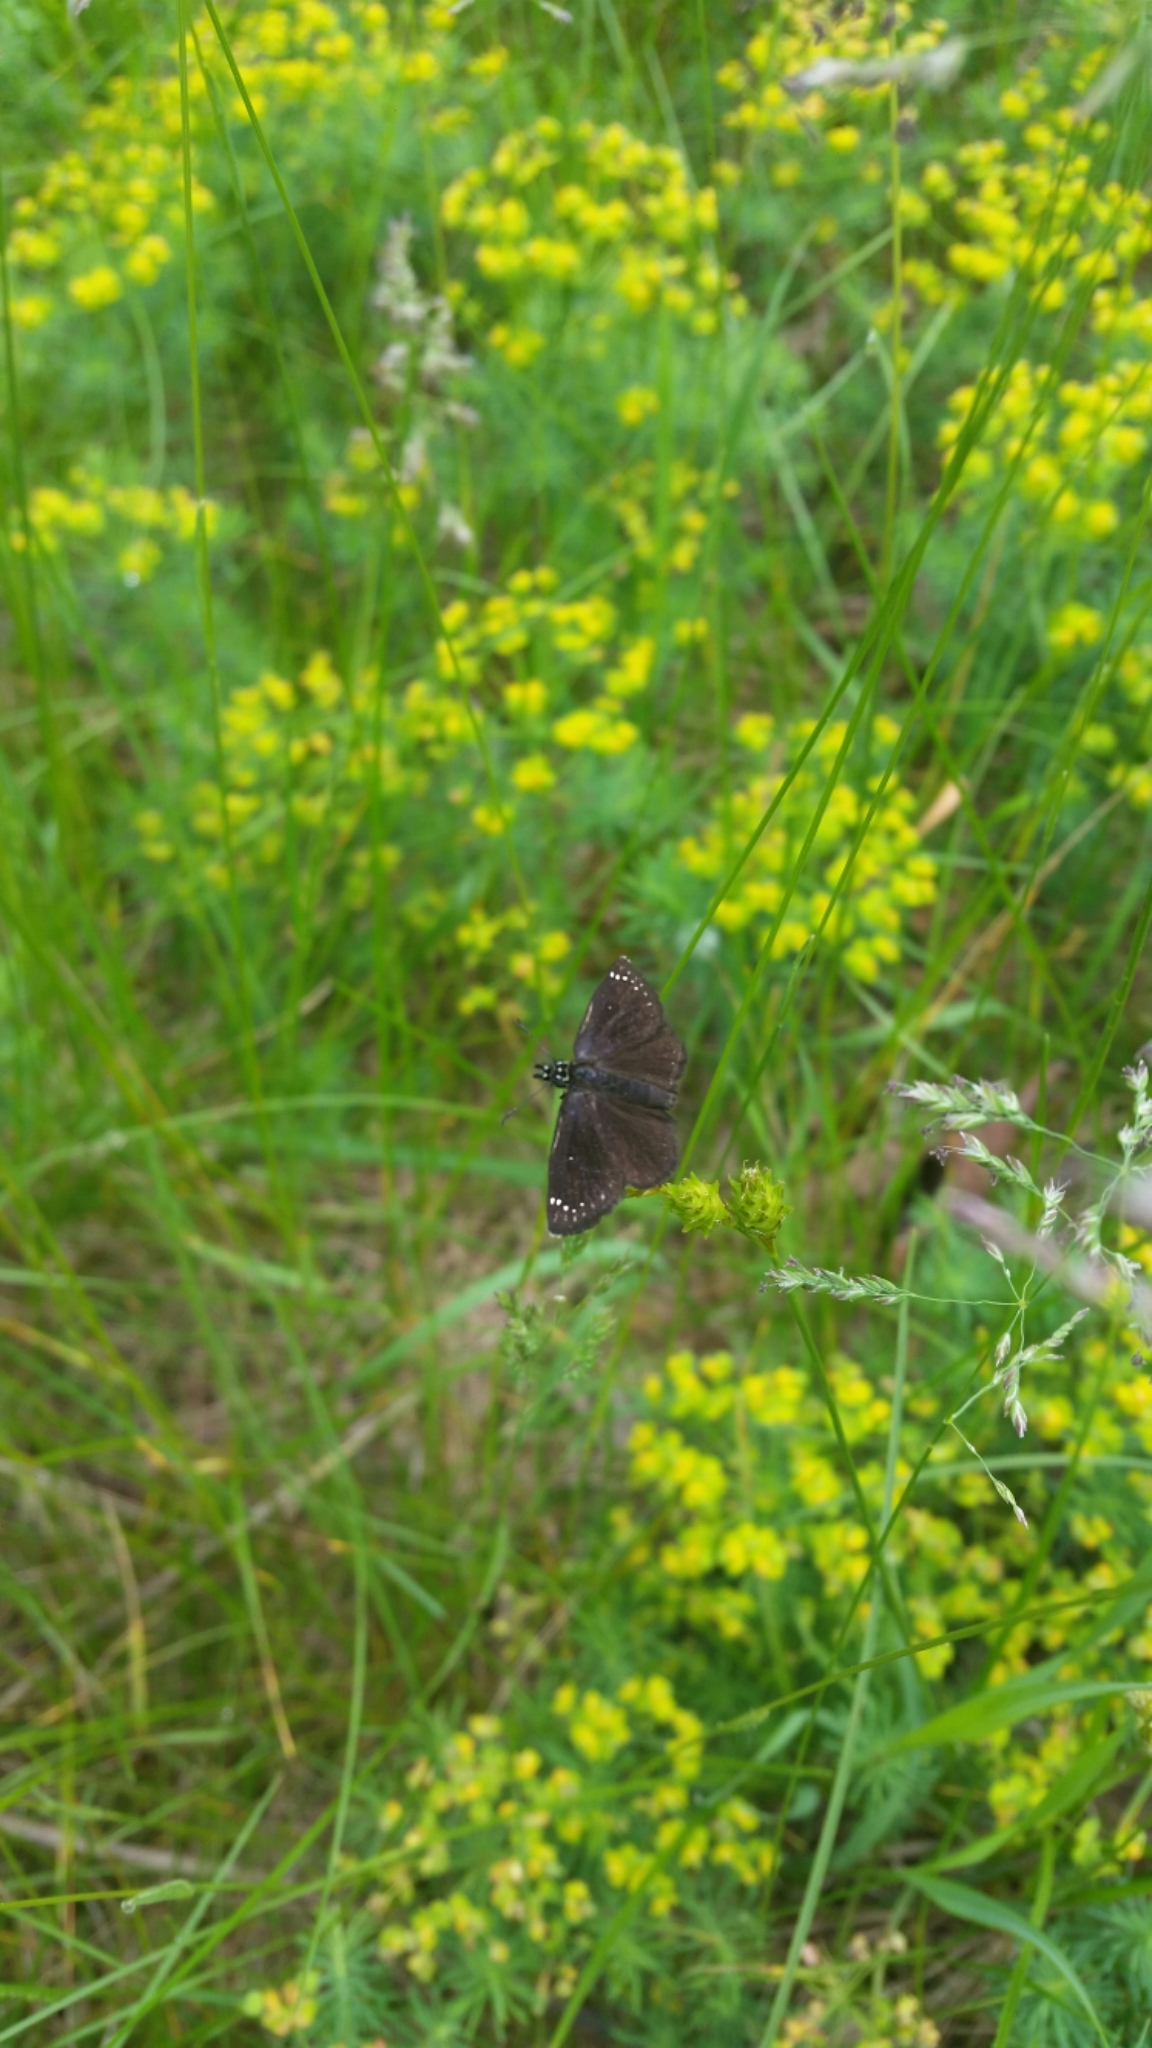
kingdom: Animalia
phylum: Arthropoda
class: Insecta
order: Lepidoptera
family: Hesperiidae
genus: Pholisora
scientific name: Pholisora catullus
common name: Common sootywing
